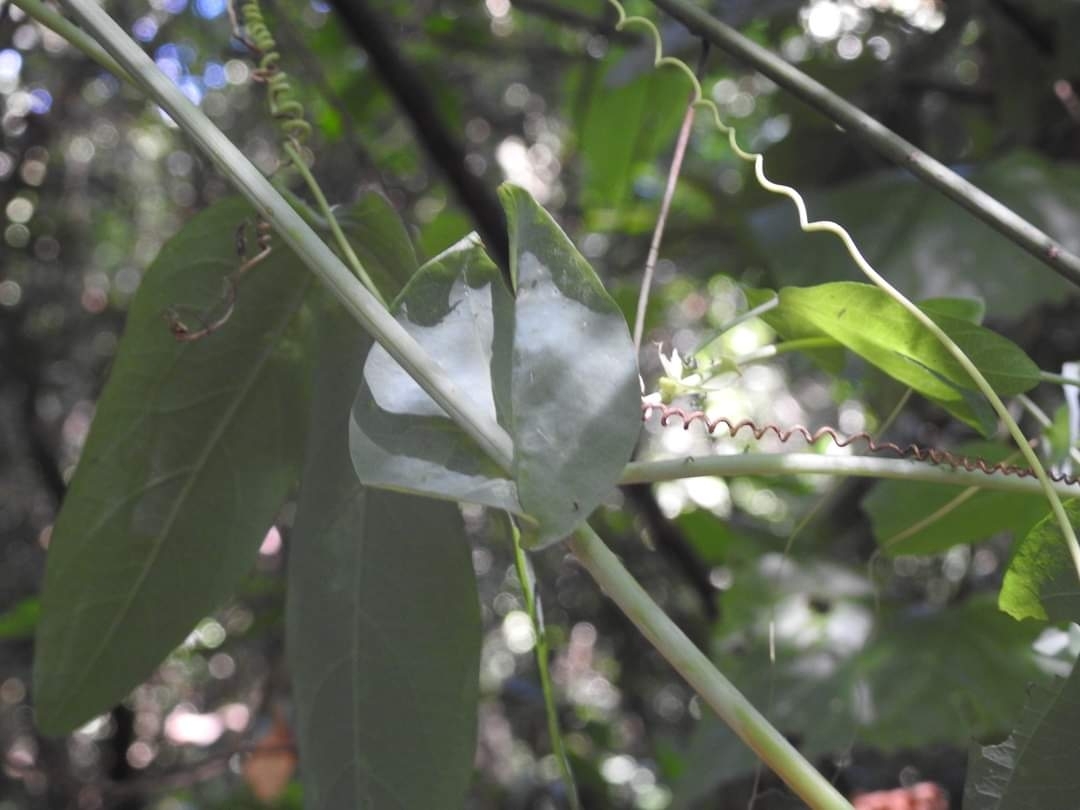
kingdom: Plantae
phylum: Tracheophyta
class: Magnoliopsida
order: Malpighiales
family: Passifloraceae
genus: Passiflora
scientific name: Passiflora tenuifila
